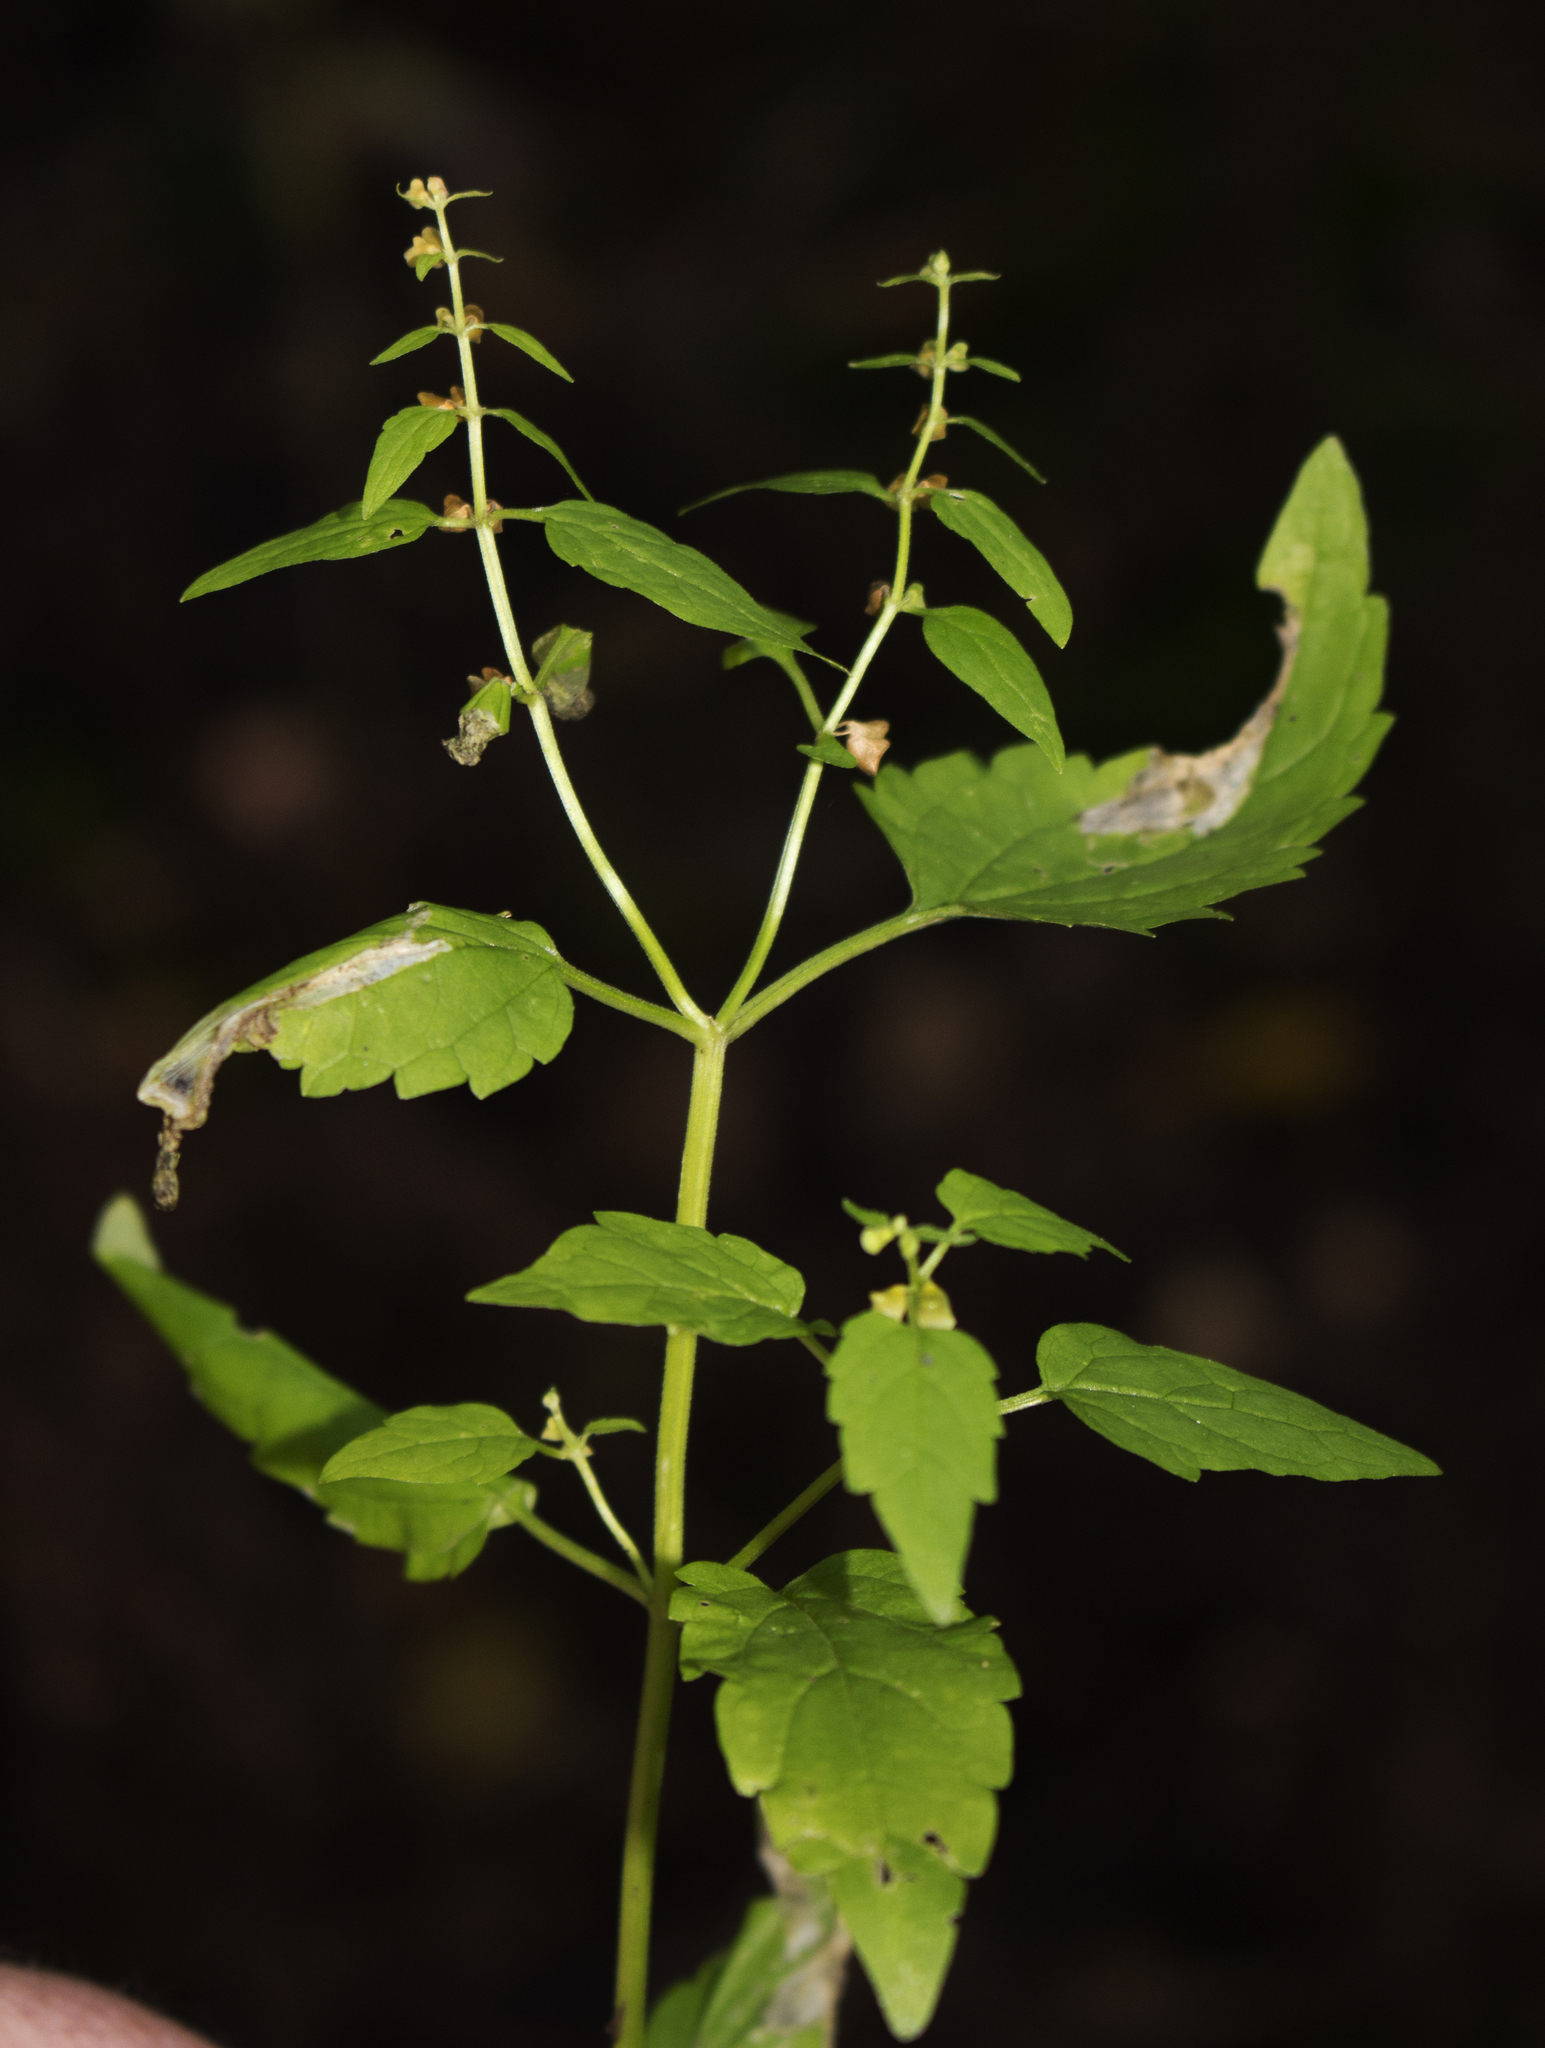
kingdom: Plantae
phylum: Tracheophyta
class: Magnoliopsida
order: Lamiales
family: Lamiaceae
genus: Scutellaria
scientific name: Scutellaria lateriflora
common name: Blue skullcap
